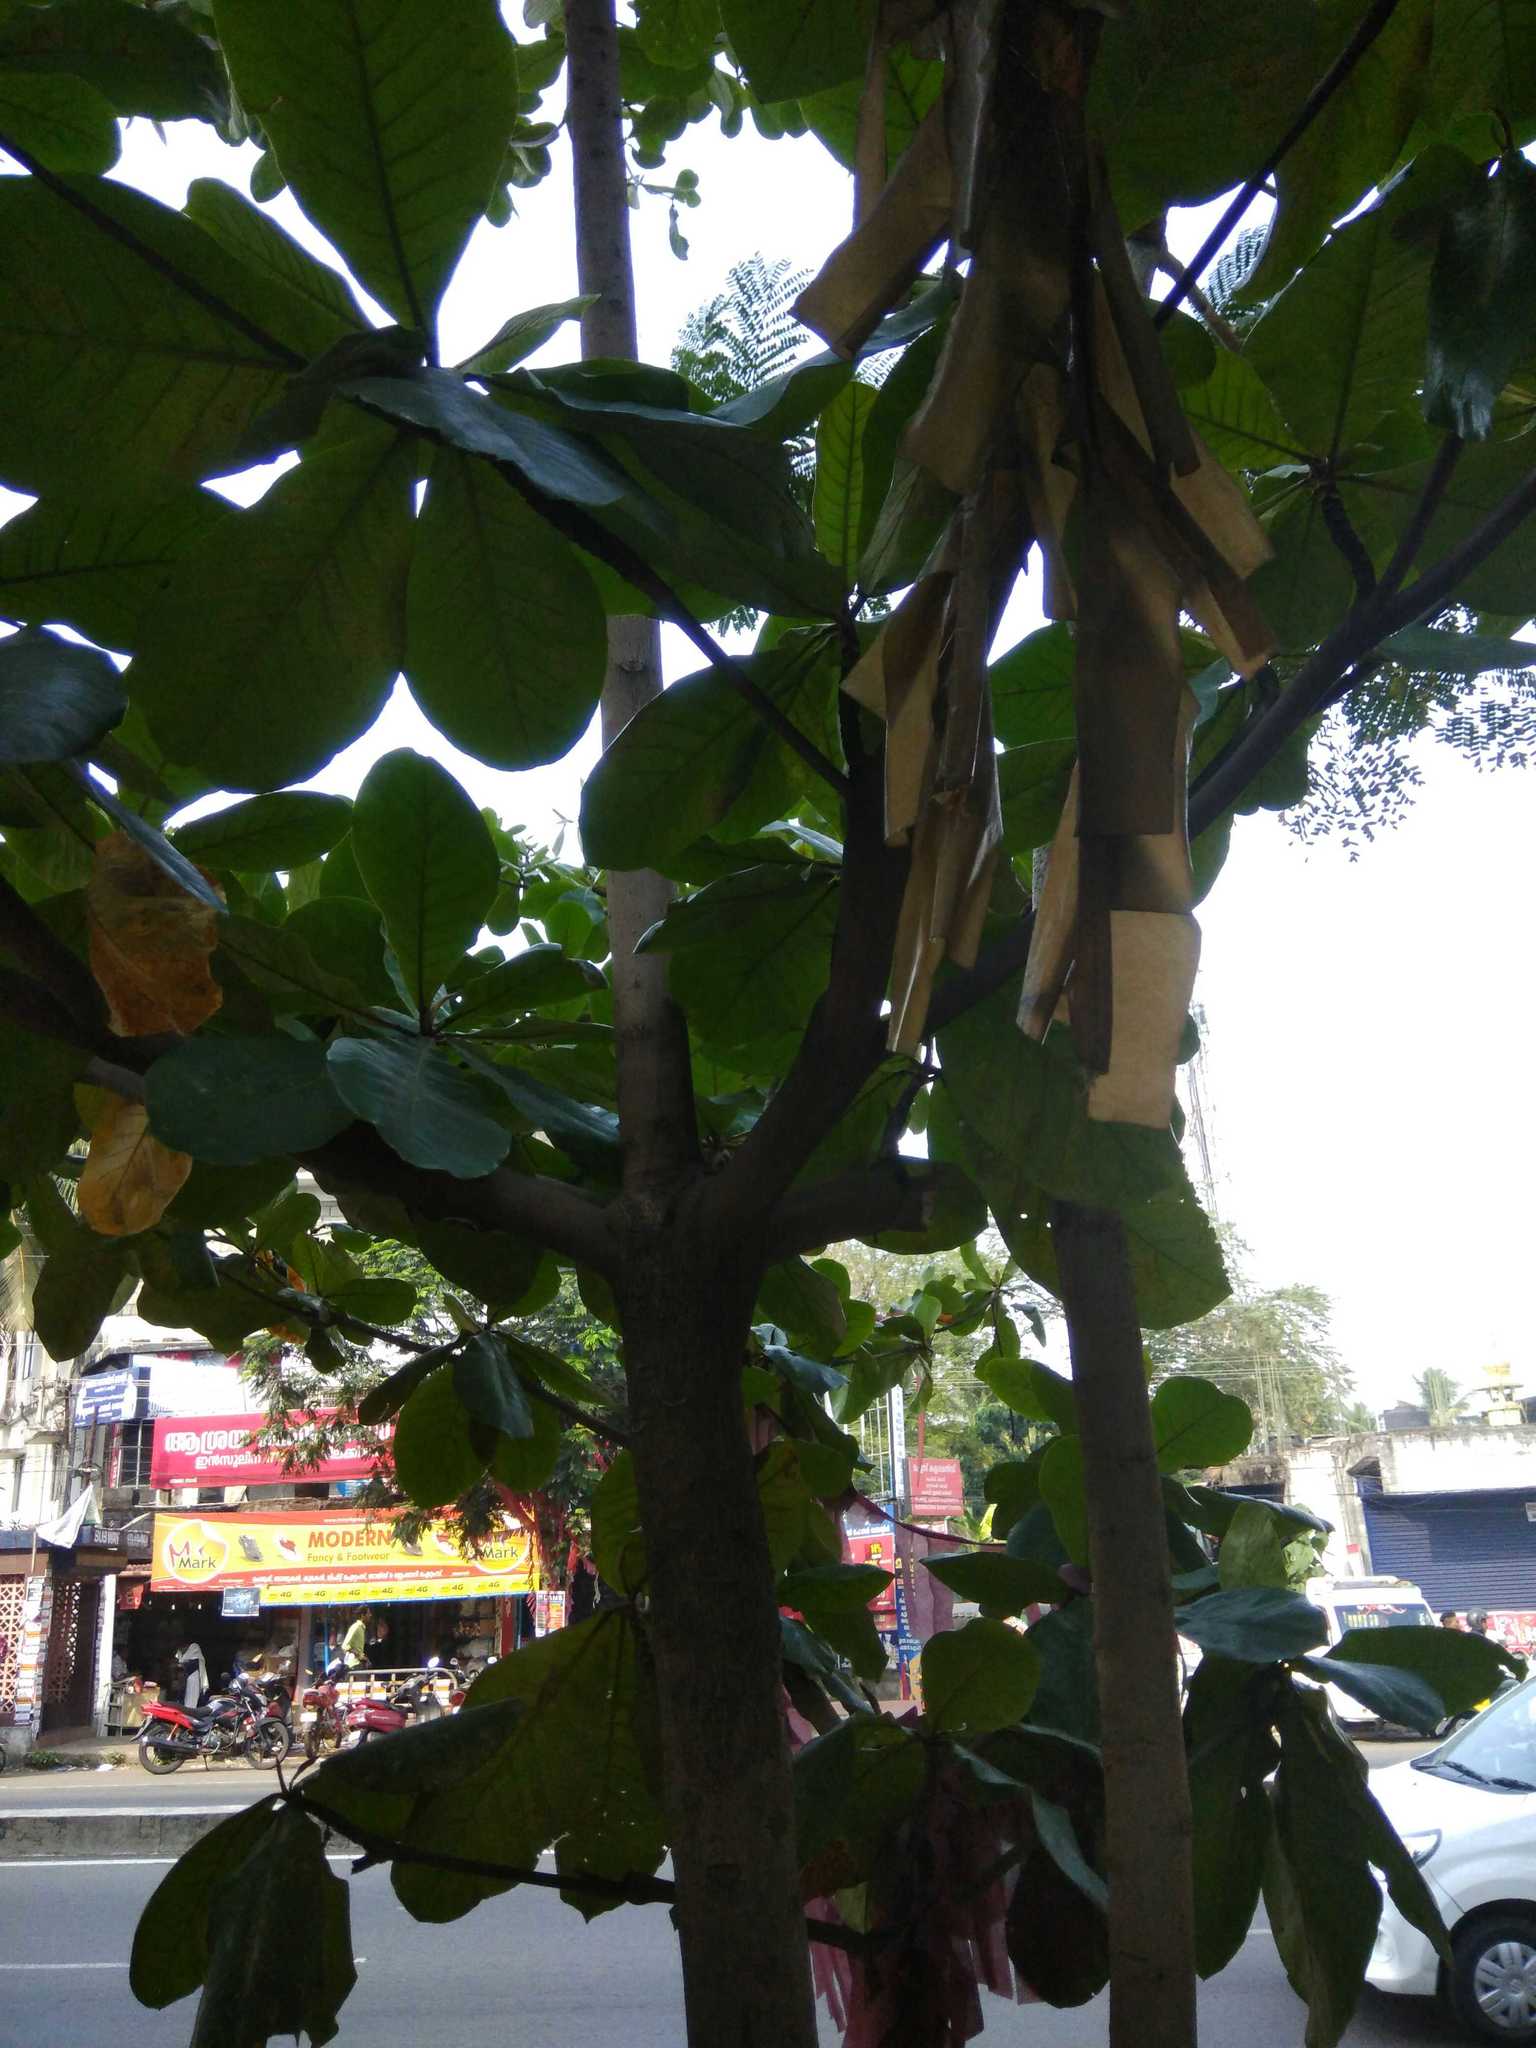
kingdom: Plantae
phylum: Tracheophyta
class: Magnoliopsida
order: Myrtales
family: Combretaceae
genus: Terminalia
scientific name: Terminalia catappa
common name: Tropical almond
